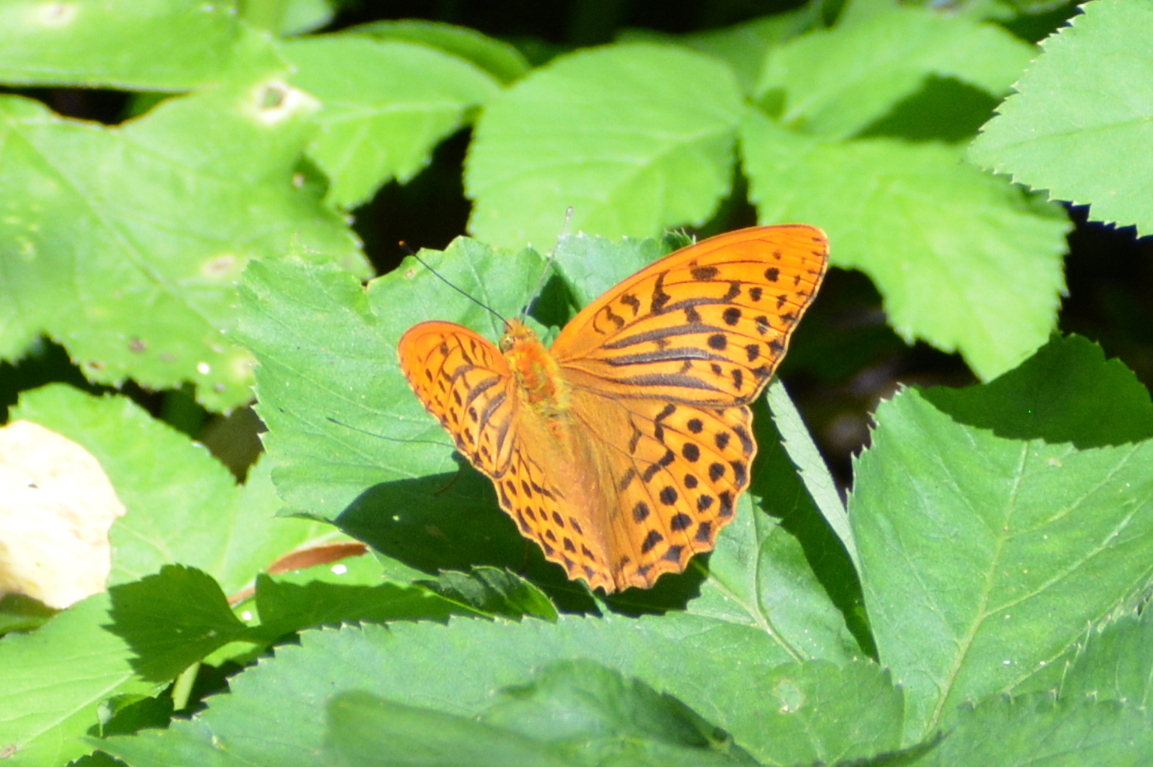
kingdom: Animalia
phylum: Arthropoda
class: Insecta
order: Lepidoptera
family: Nymphalidae
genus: Argynnis
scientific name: Argynnis paphia
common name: Silver-washed fritillary
